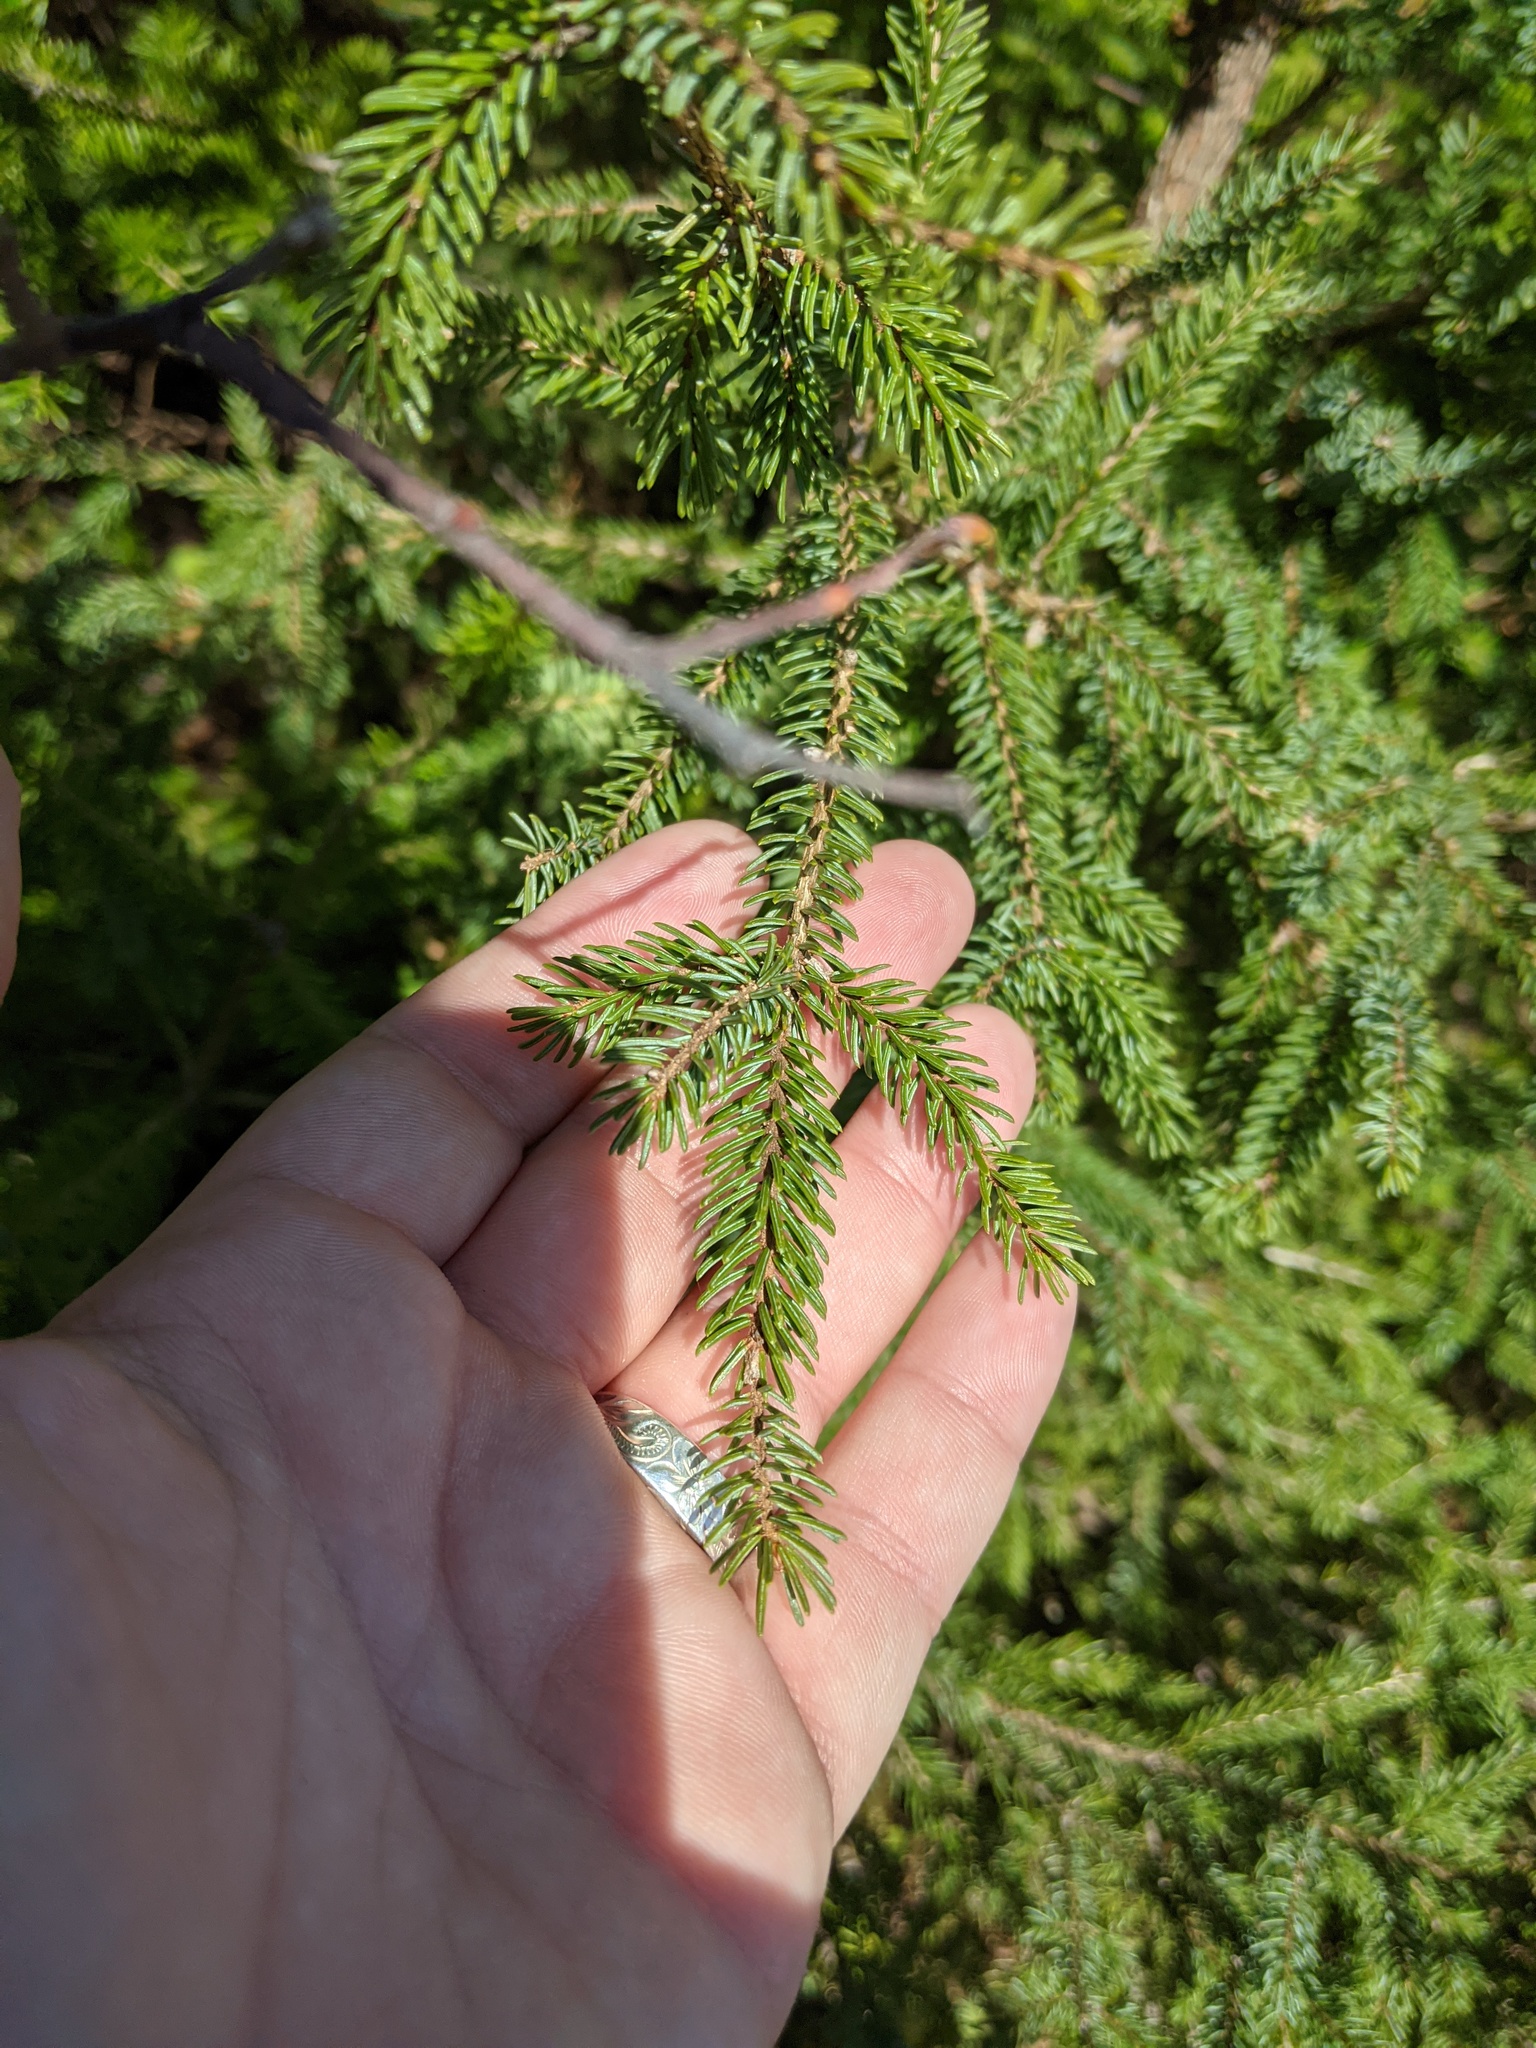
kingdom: Plantae
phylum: Tracheophyta
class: Pinopsida
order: Pinales
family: Pinaceae
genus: Picea
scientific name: Picea mariana
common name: Black spruce
